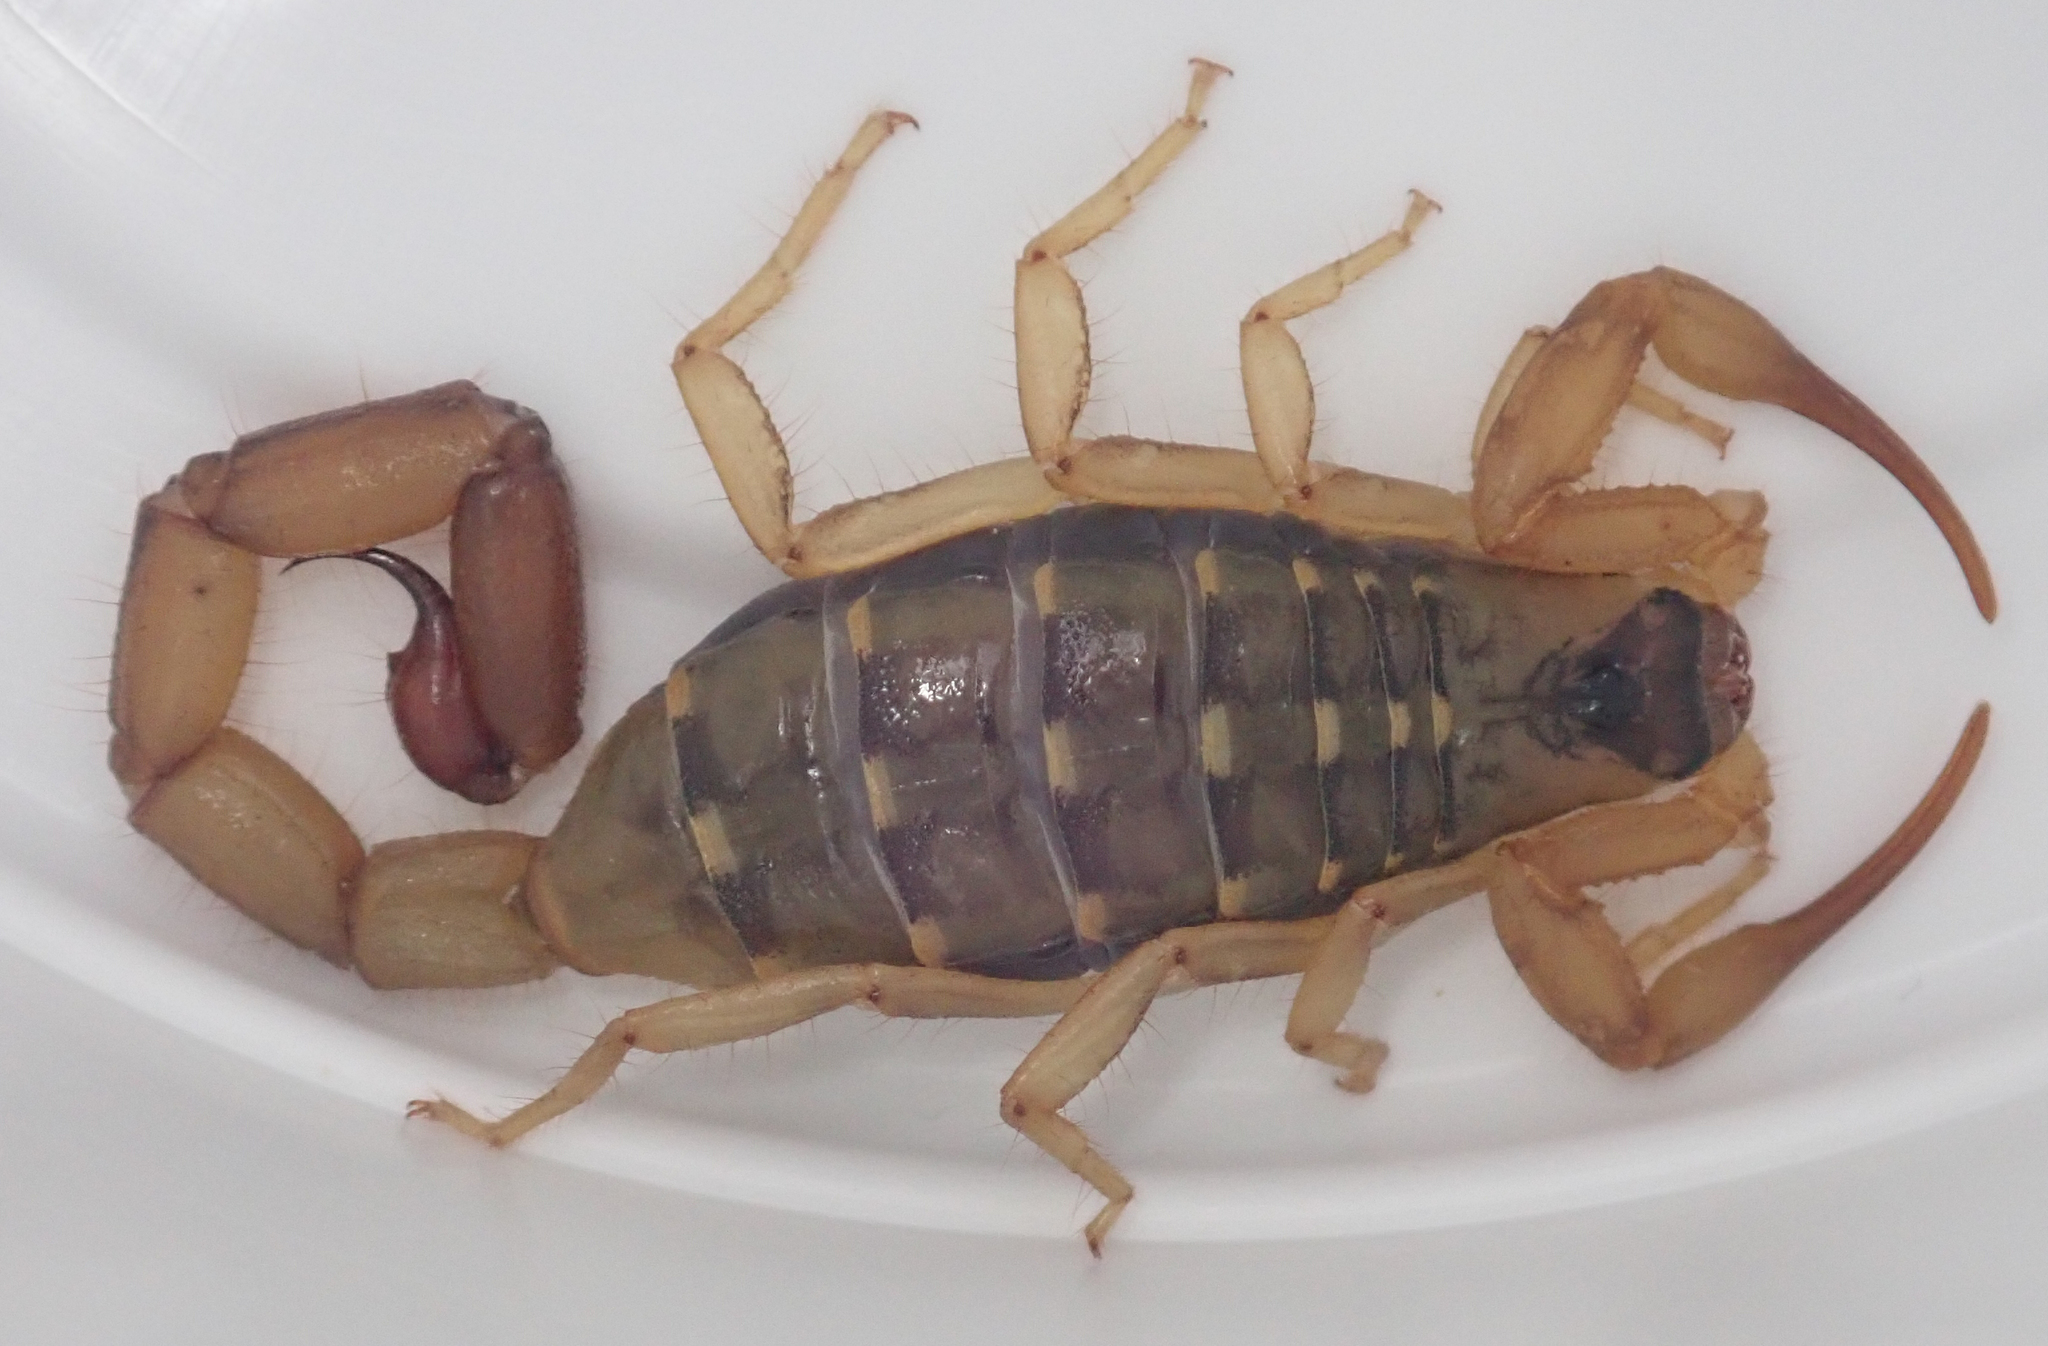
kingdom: Animalia
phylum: Arthropoda
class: Arachnida
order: Scorpiones
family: Buthidae
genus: Uroplectes
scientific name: Uroplectes vittatus
